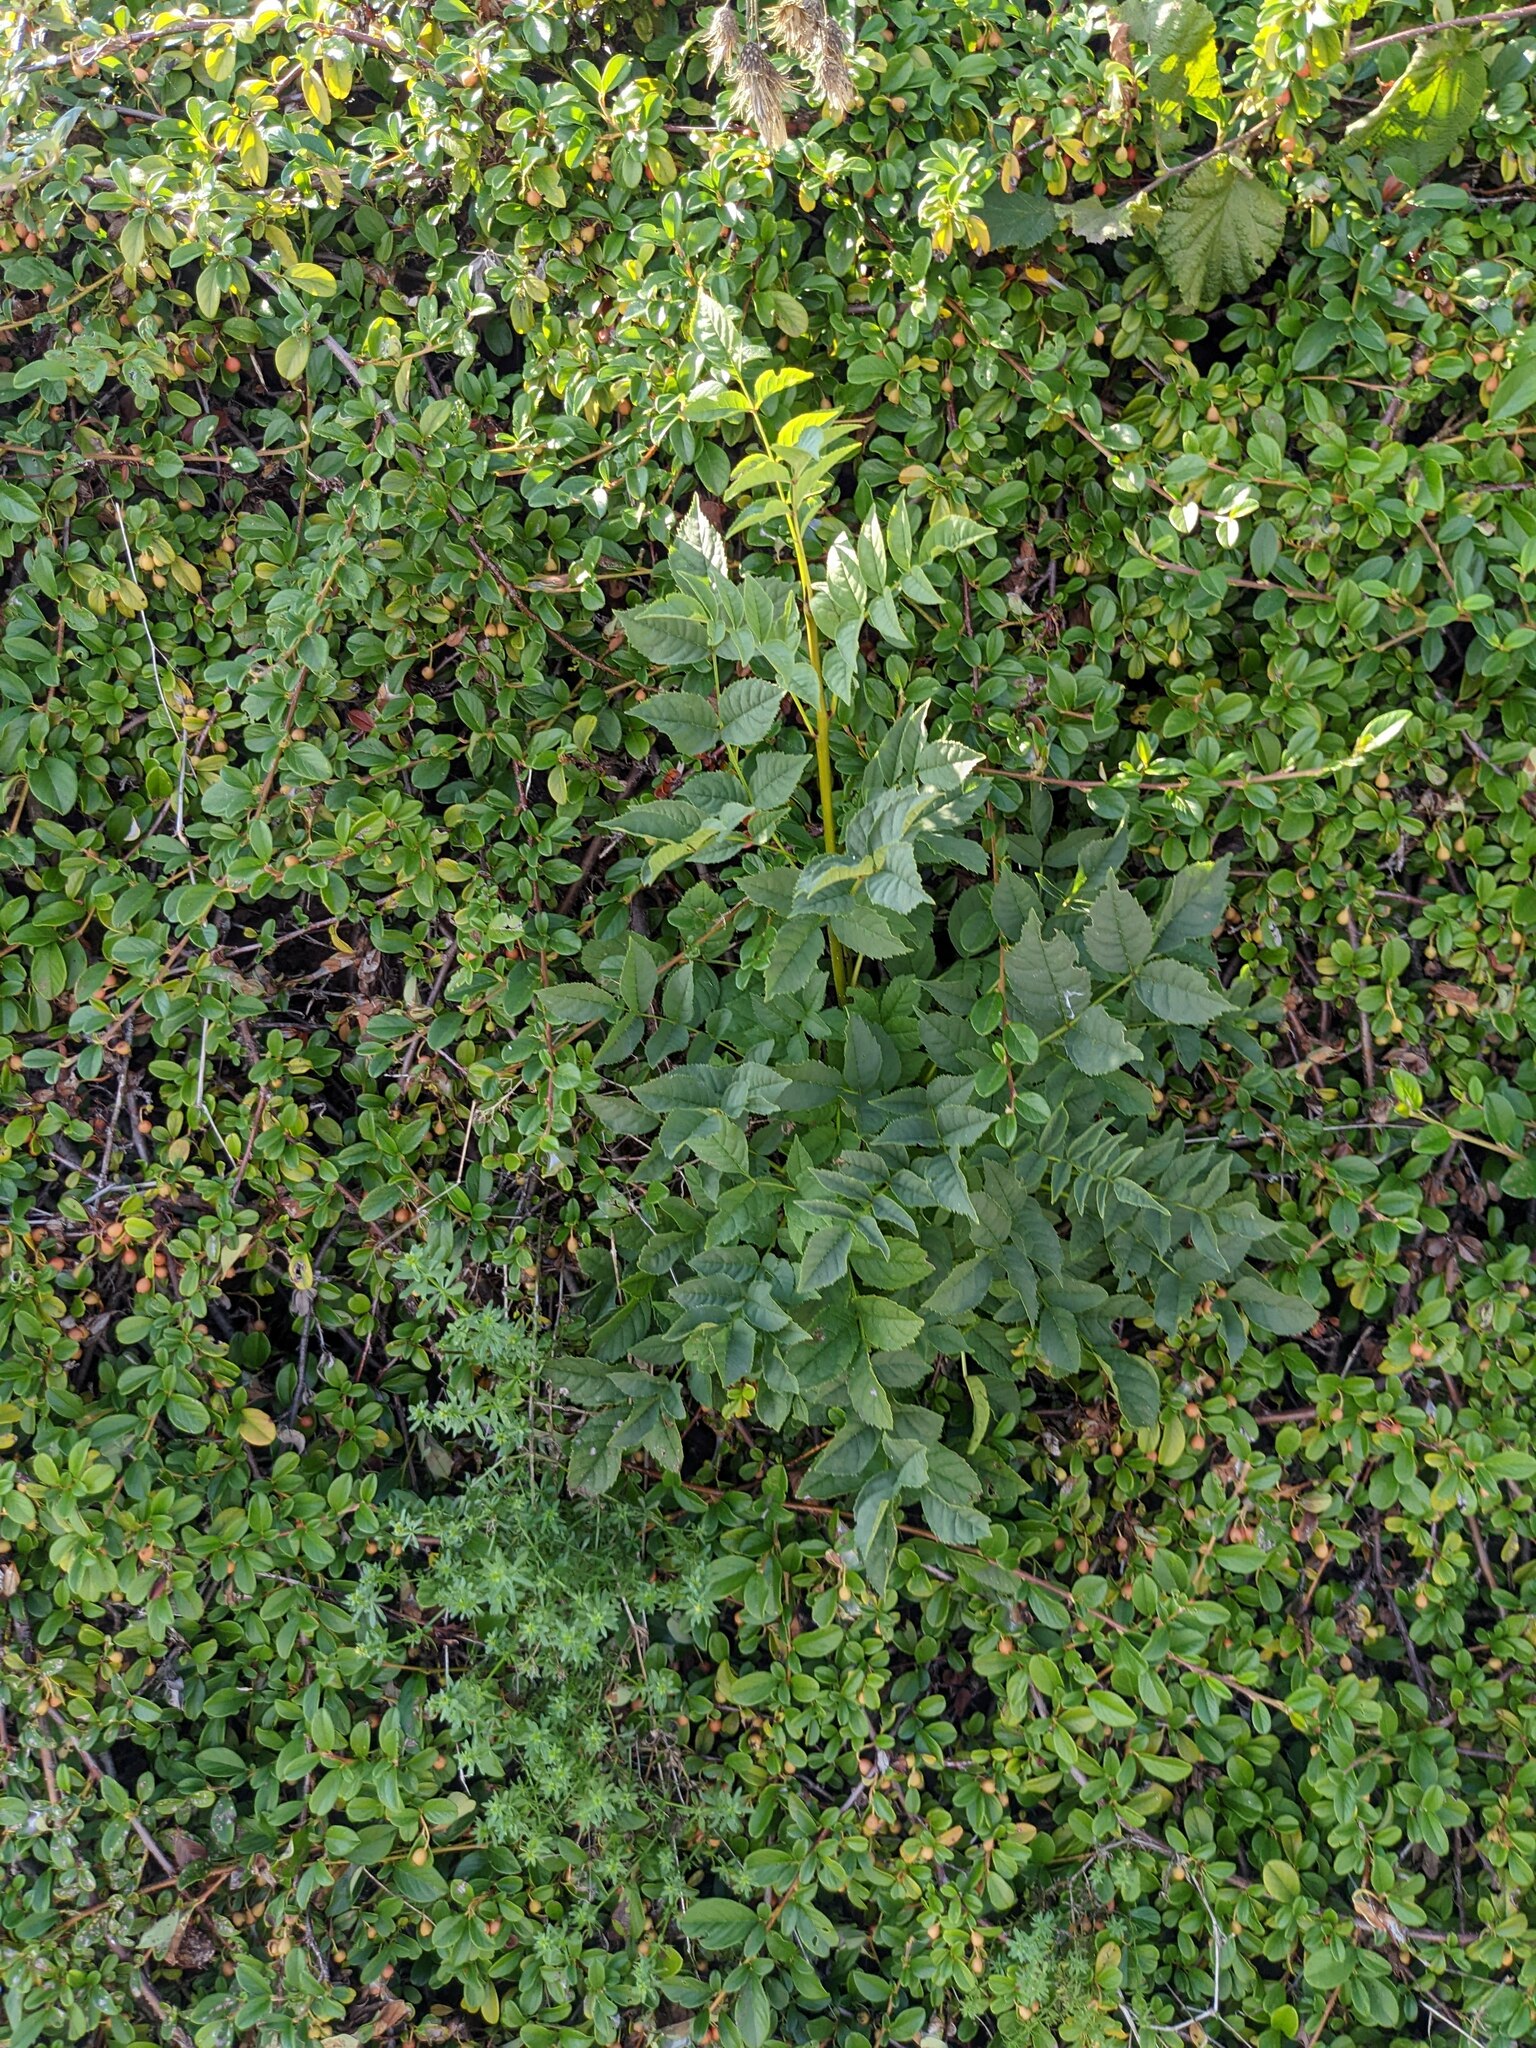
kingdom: Plantae
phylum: Tracheophyta
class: Magnoliopsida
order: Lamiales
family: Oleaceae
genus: Fraxinus
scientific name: Fraxinus excelsior
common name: European ash
